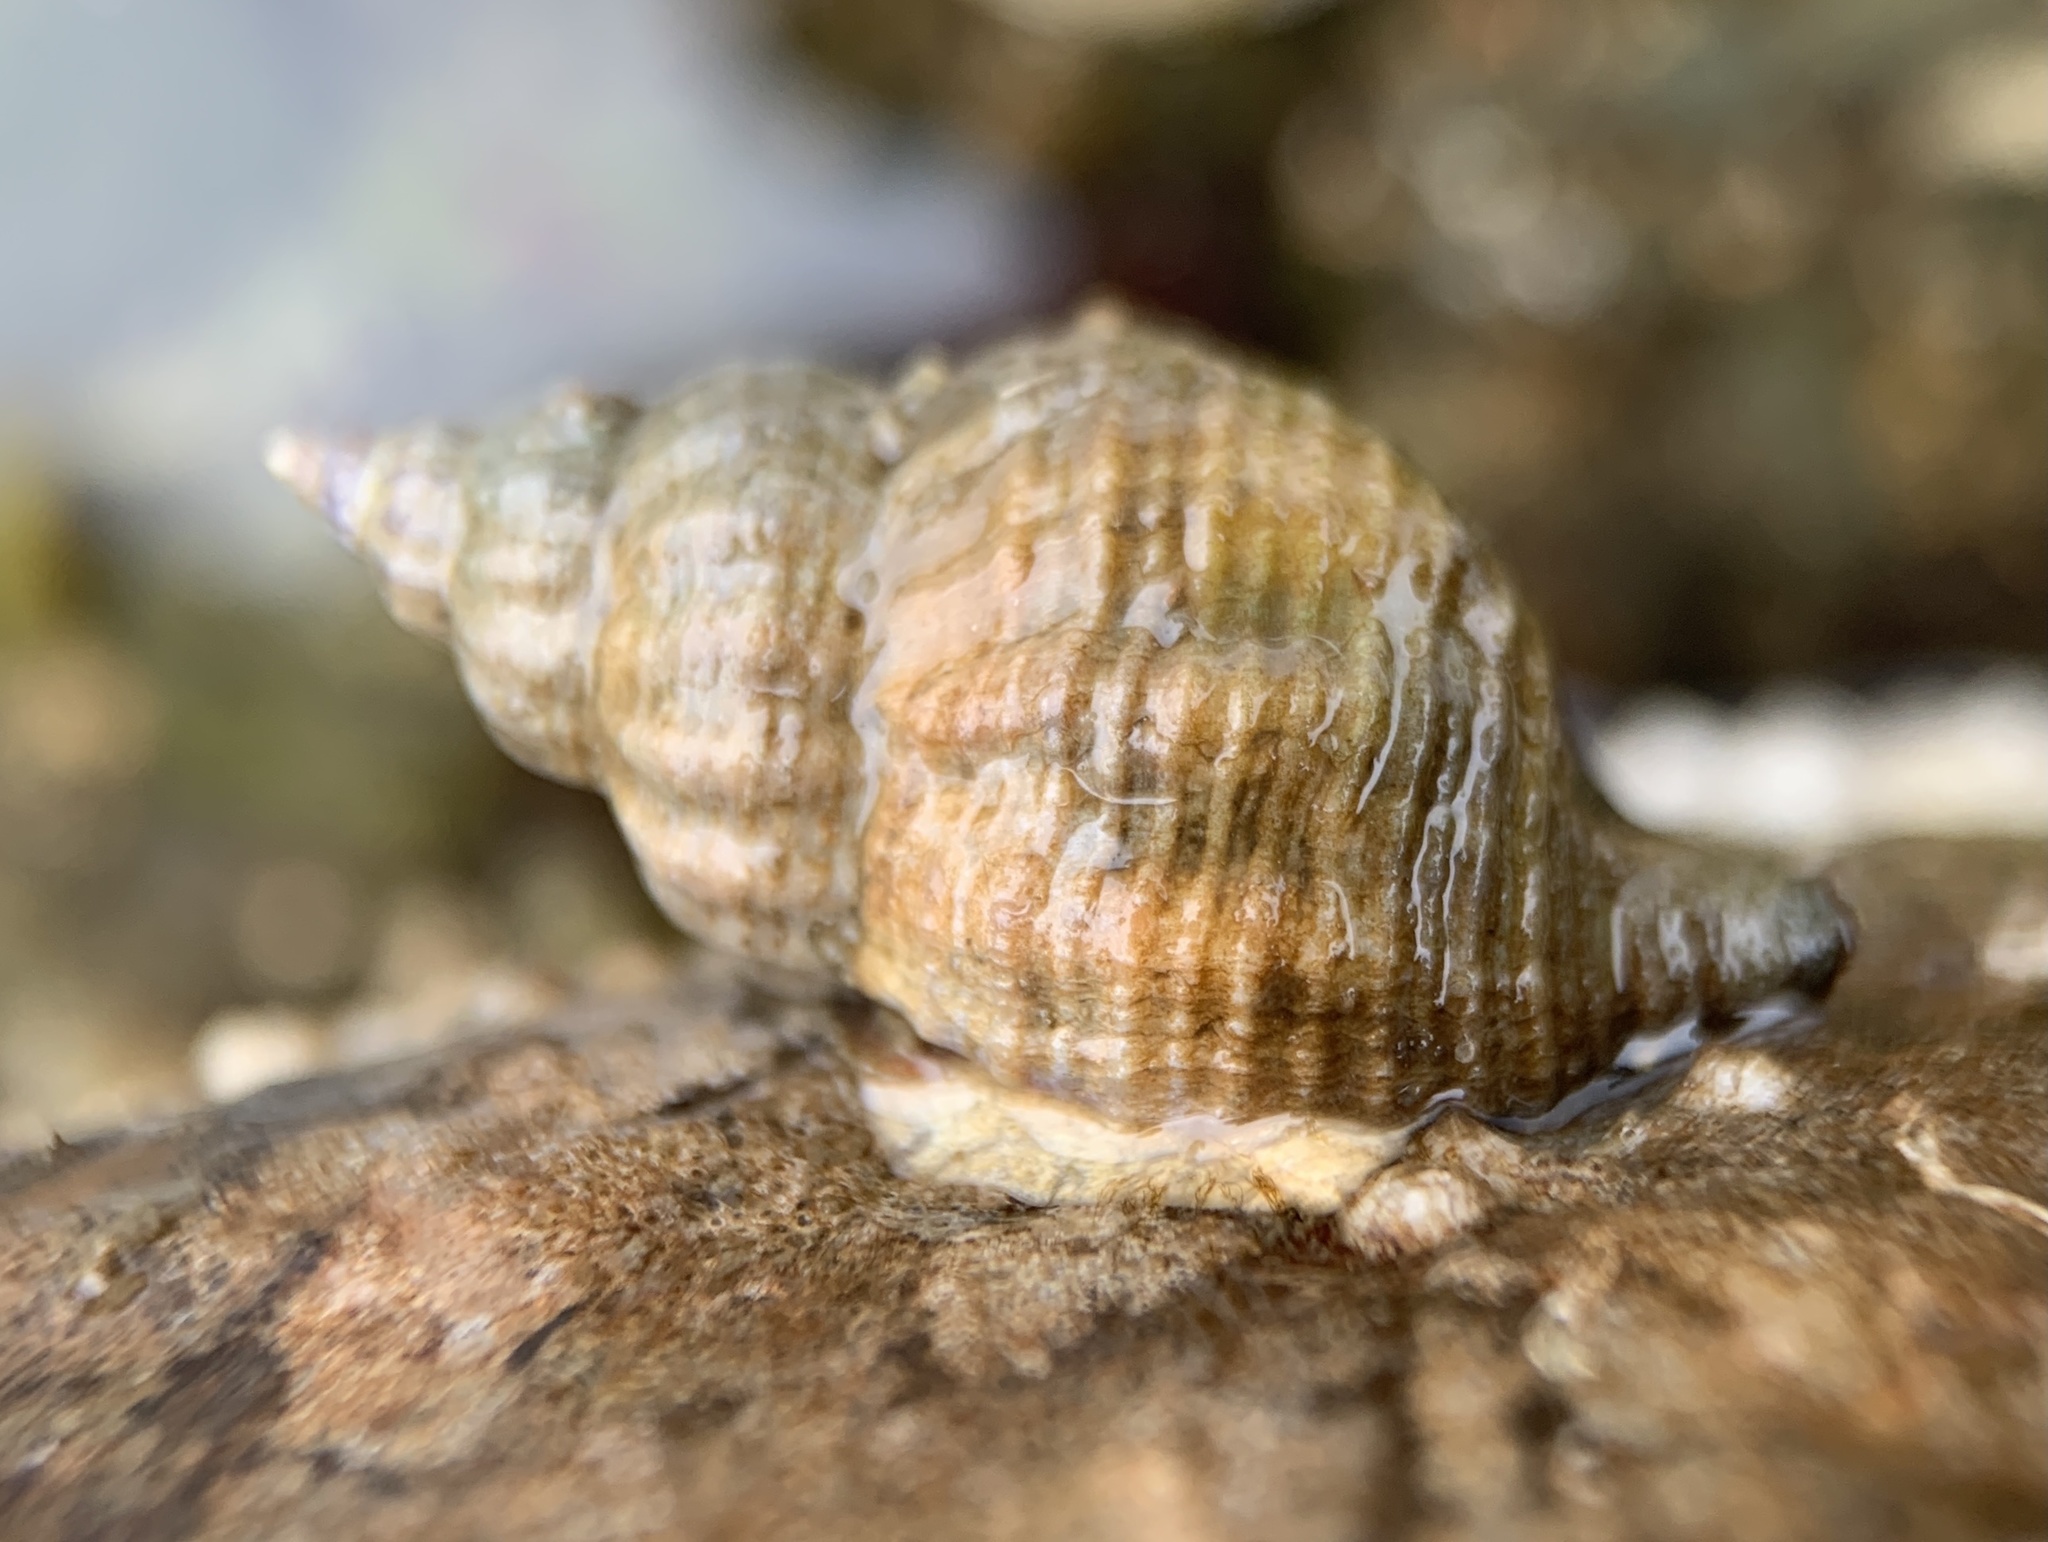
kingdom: Animalia
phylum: Mollusca
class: Gastropoda
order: Neogastropoda
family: Muricidae
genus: Urosalpinx
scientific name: Urosalpinx cinerea
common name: American sting winkle
